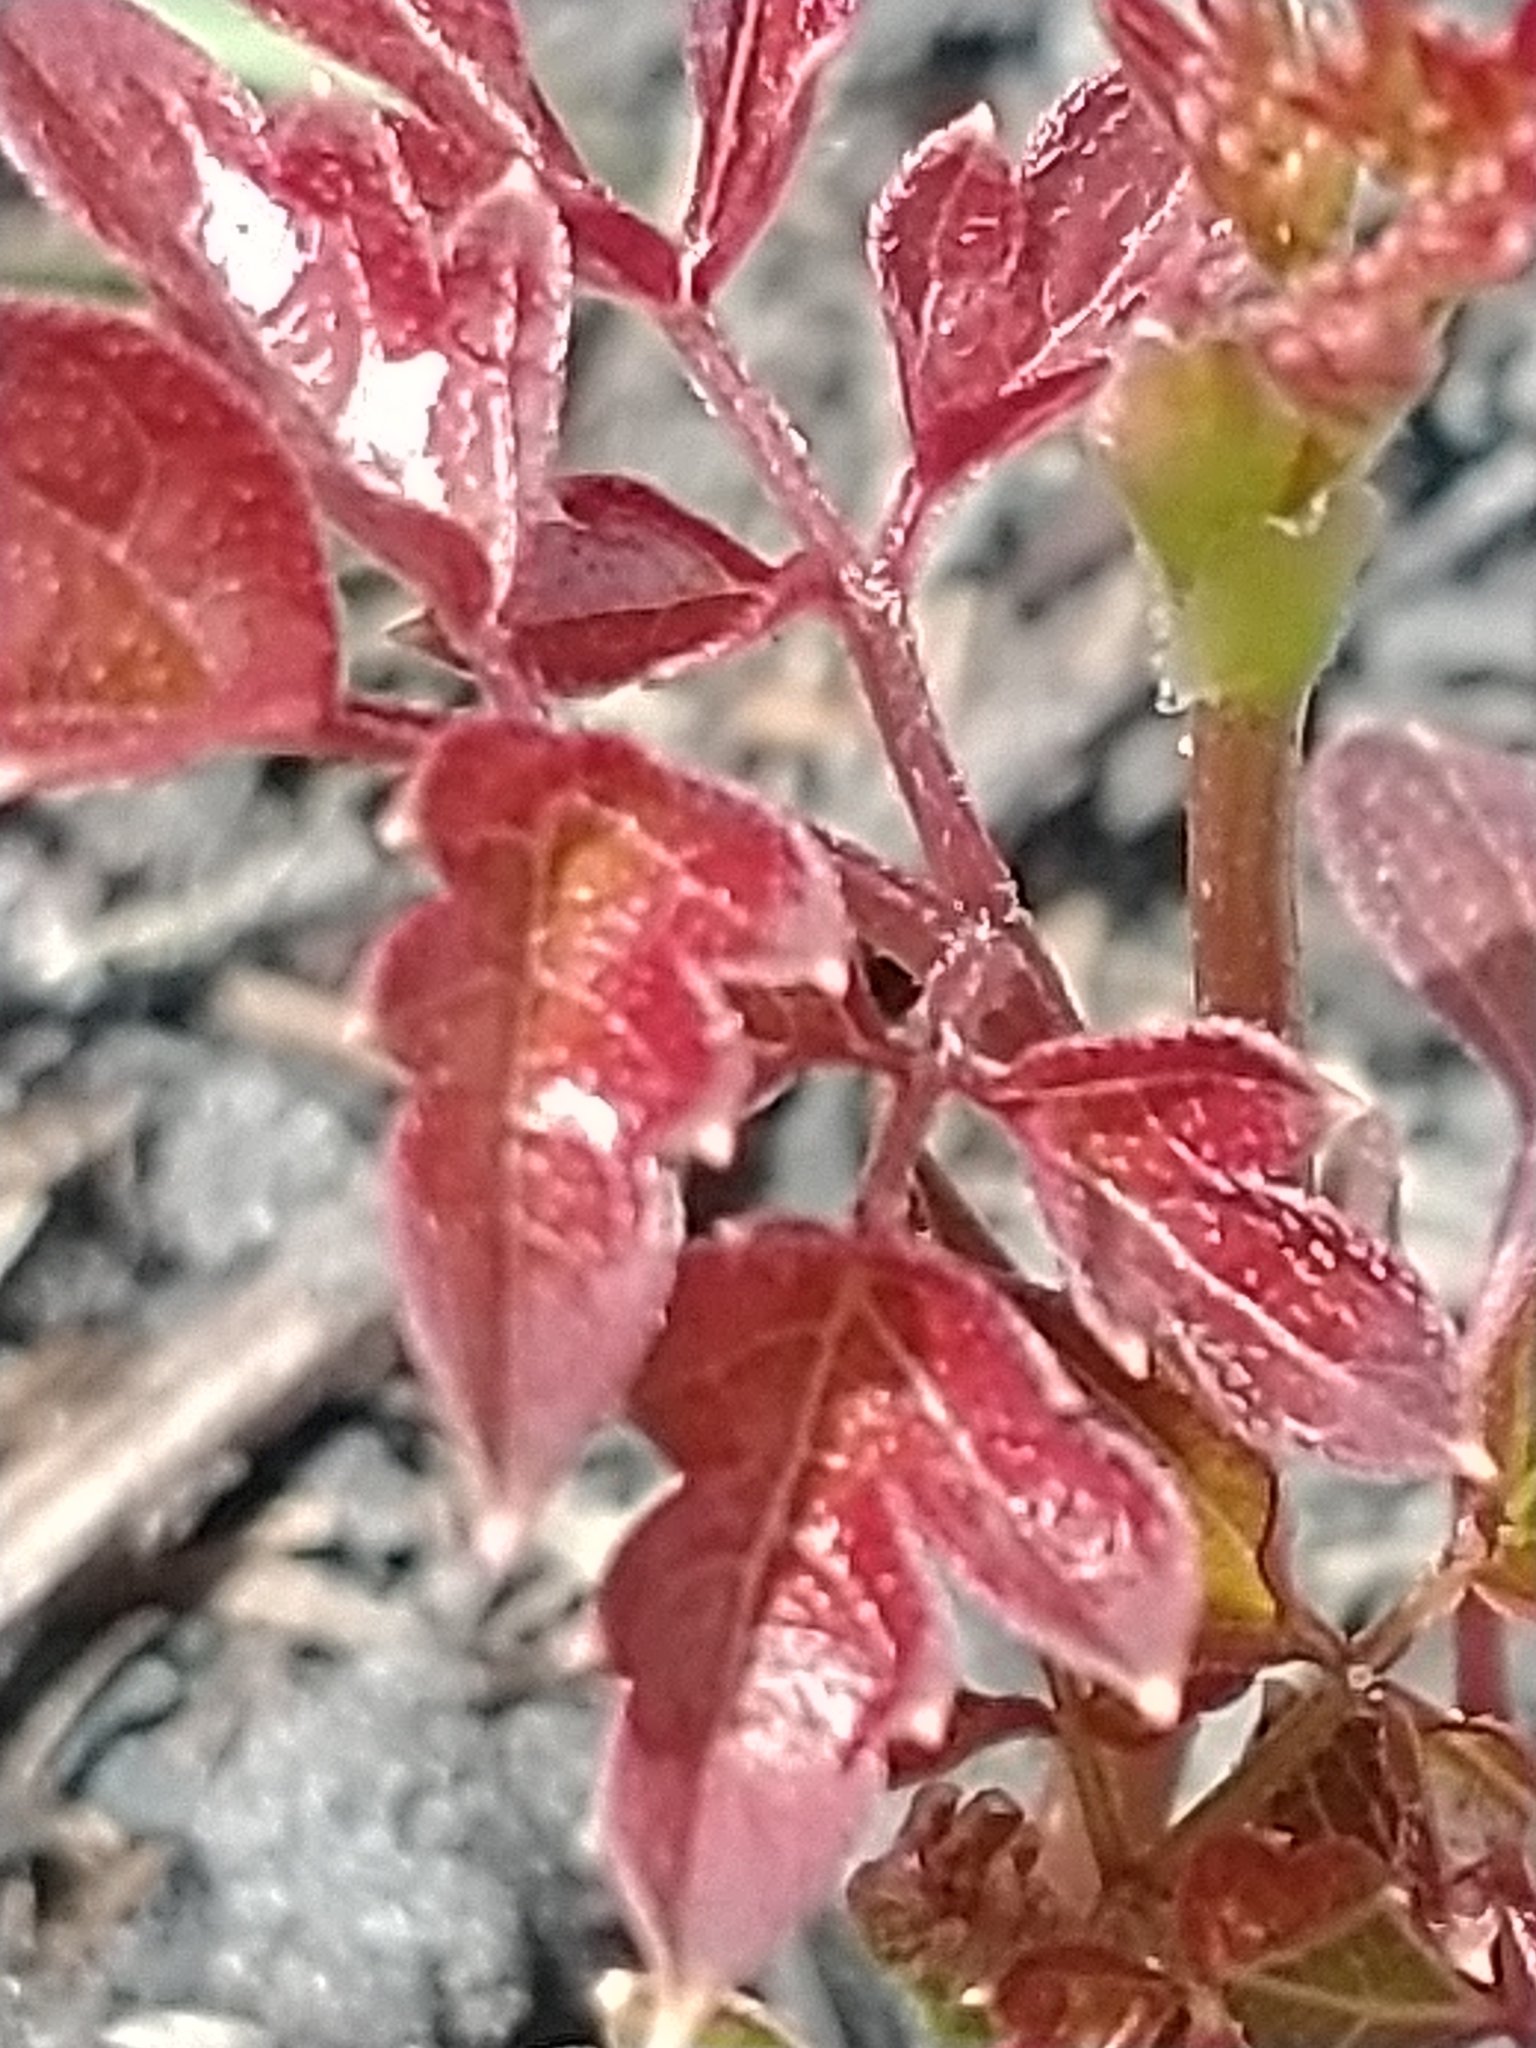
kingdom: Plantae
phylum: Tracheophyta
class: Magnoliopsida
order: Vitales
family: Vitaceae
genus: Nekemias
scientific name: Nekemias arborea
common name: Peppervine
